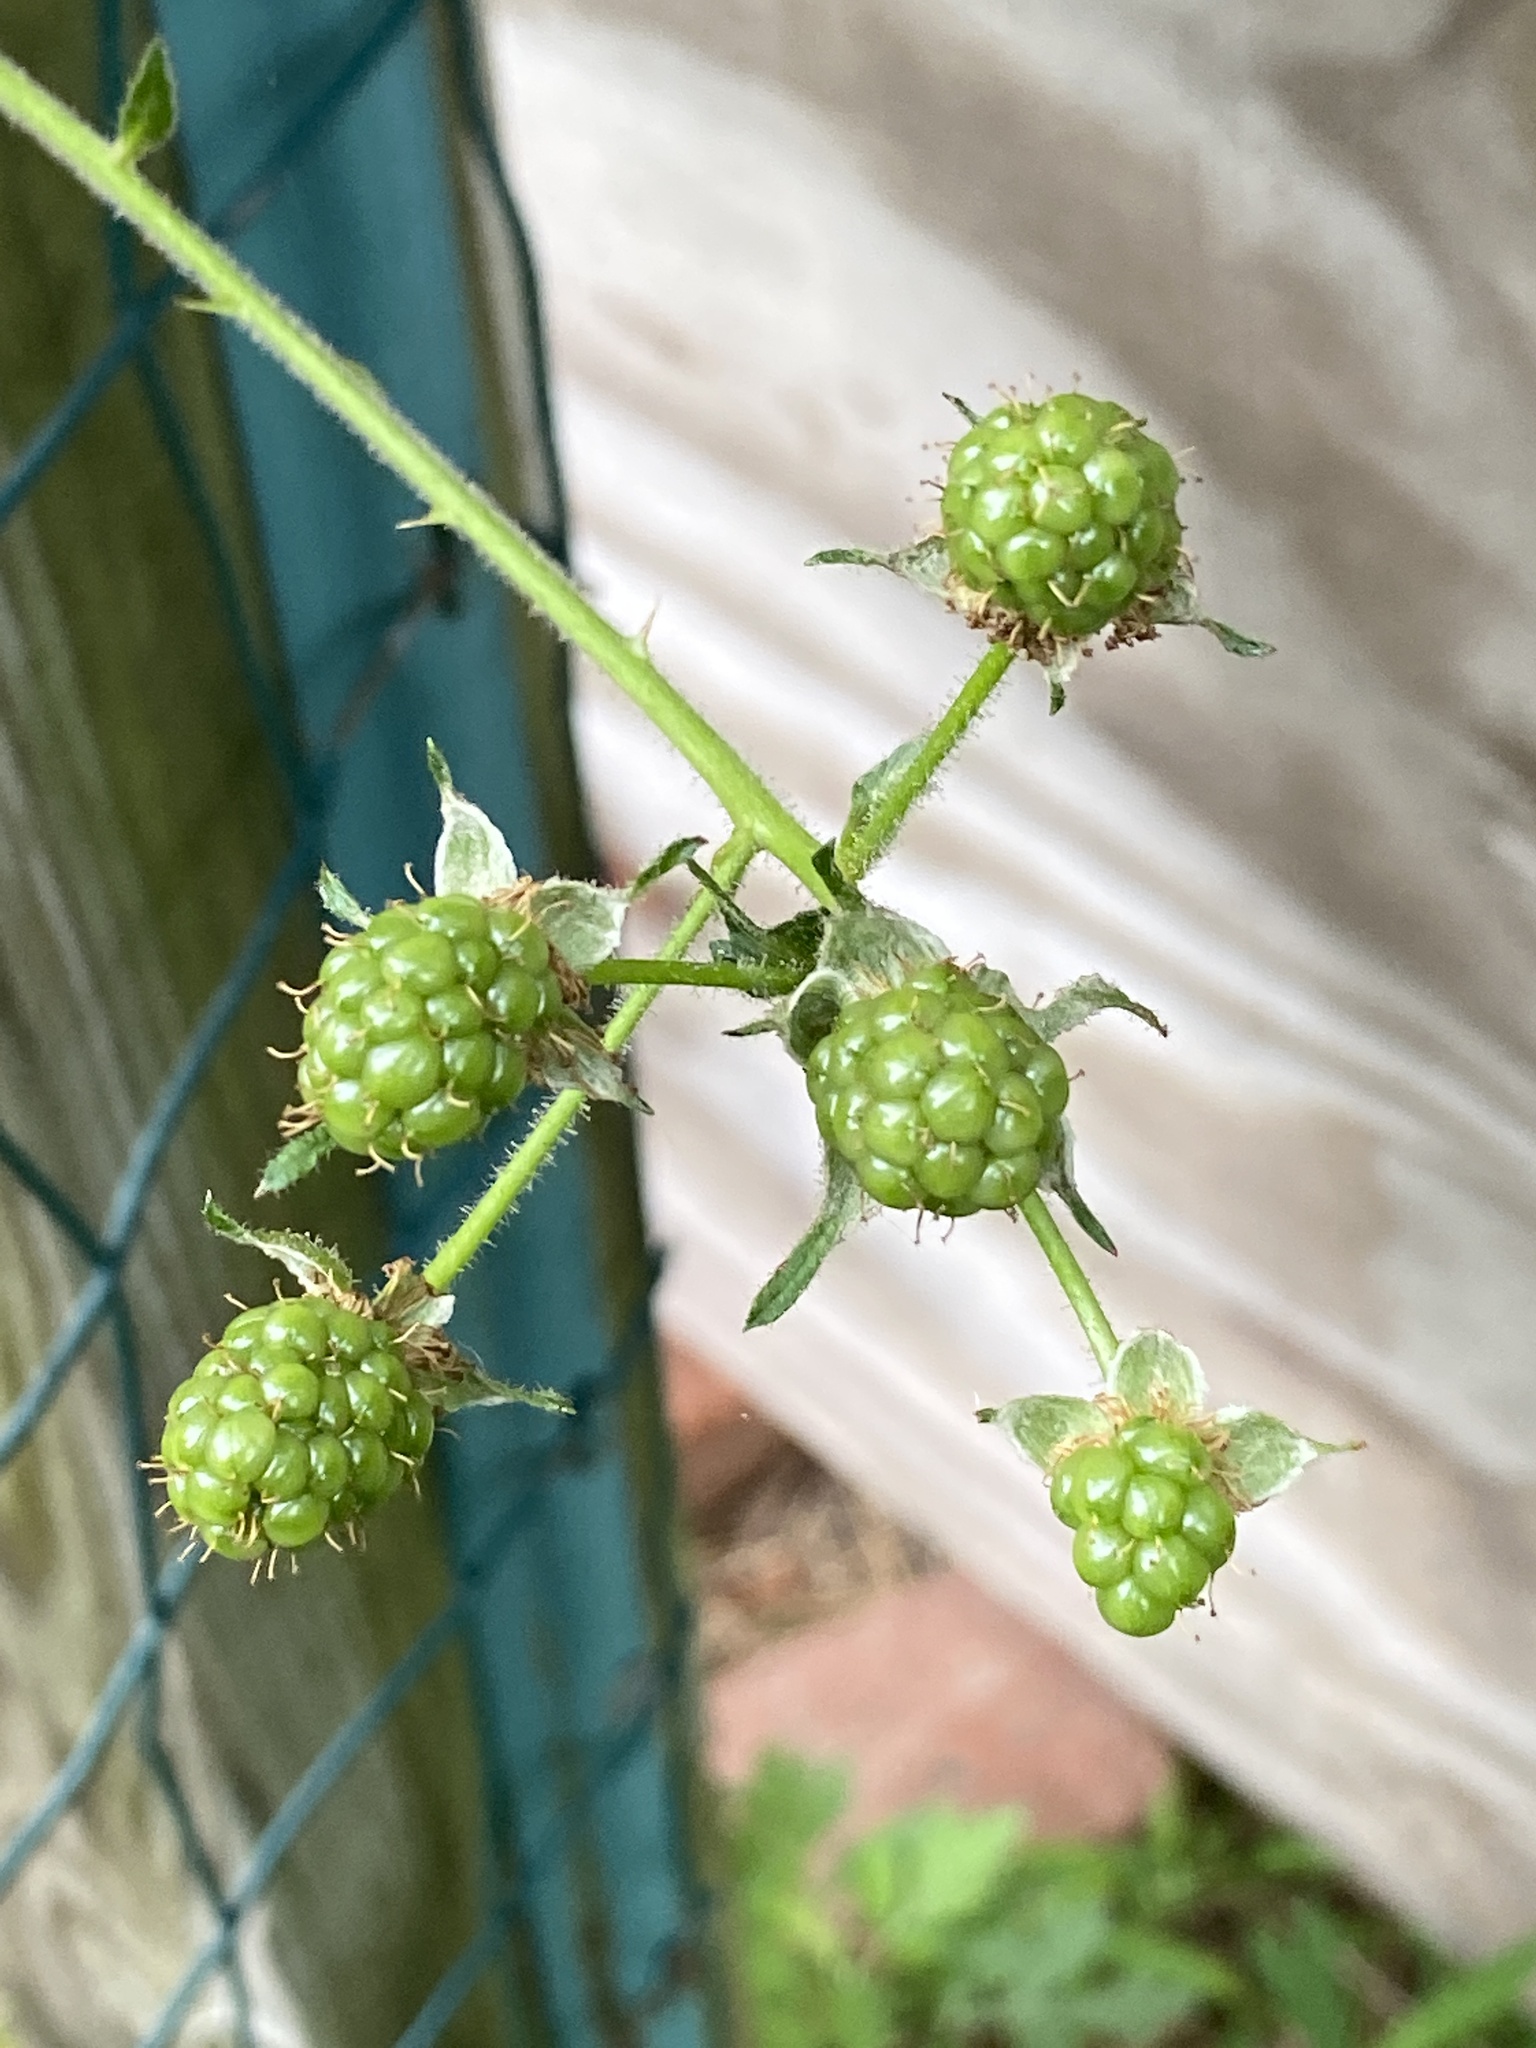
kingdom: Plantae
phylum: Tracheophyta
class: Magnoliopsida
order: Rosales
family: Rosaceae
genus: Rubus
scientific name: Rubus allegheniensis
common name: Allegheny blackberry
